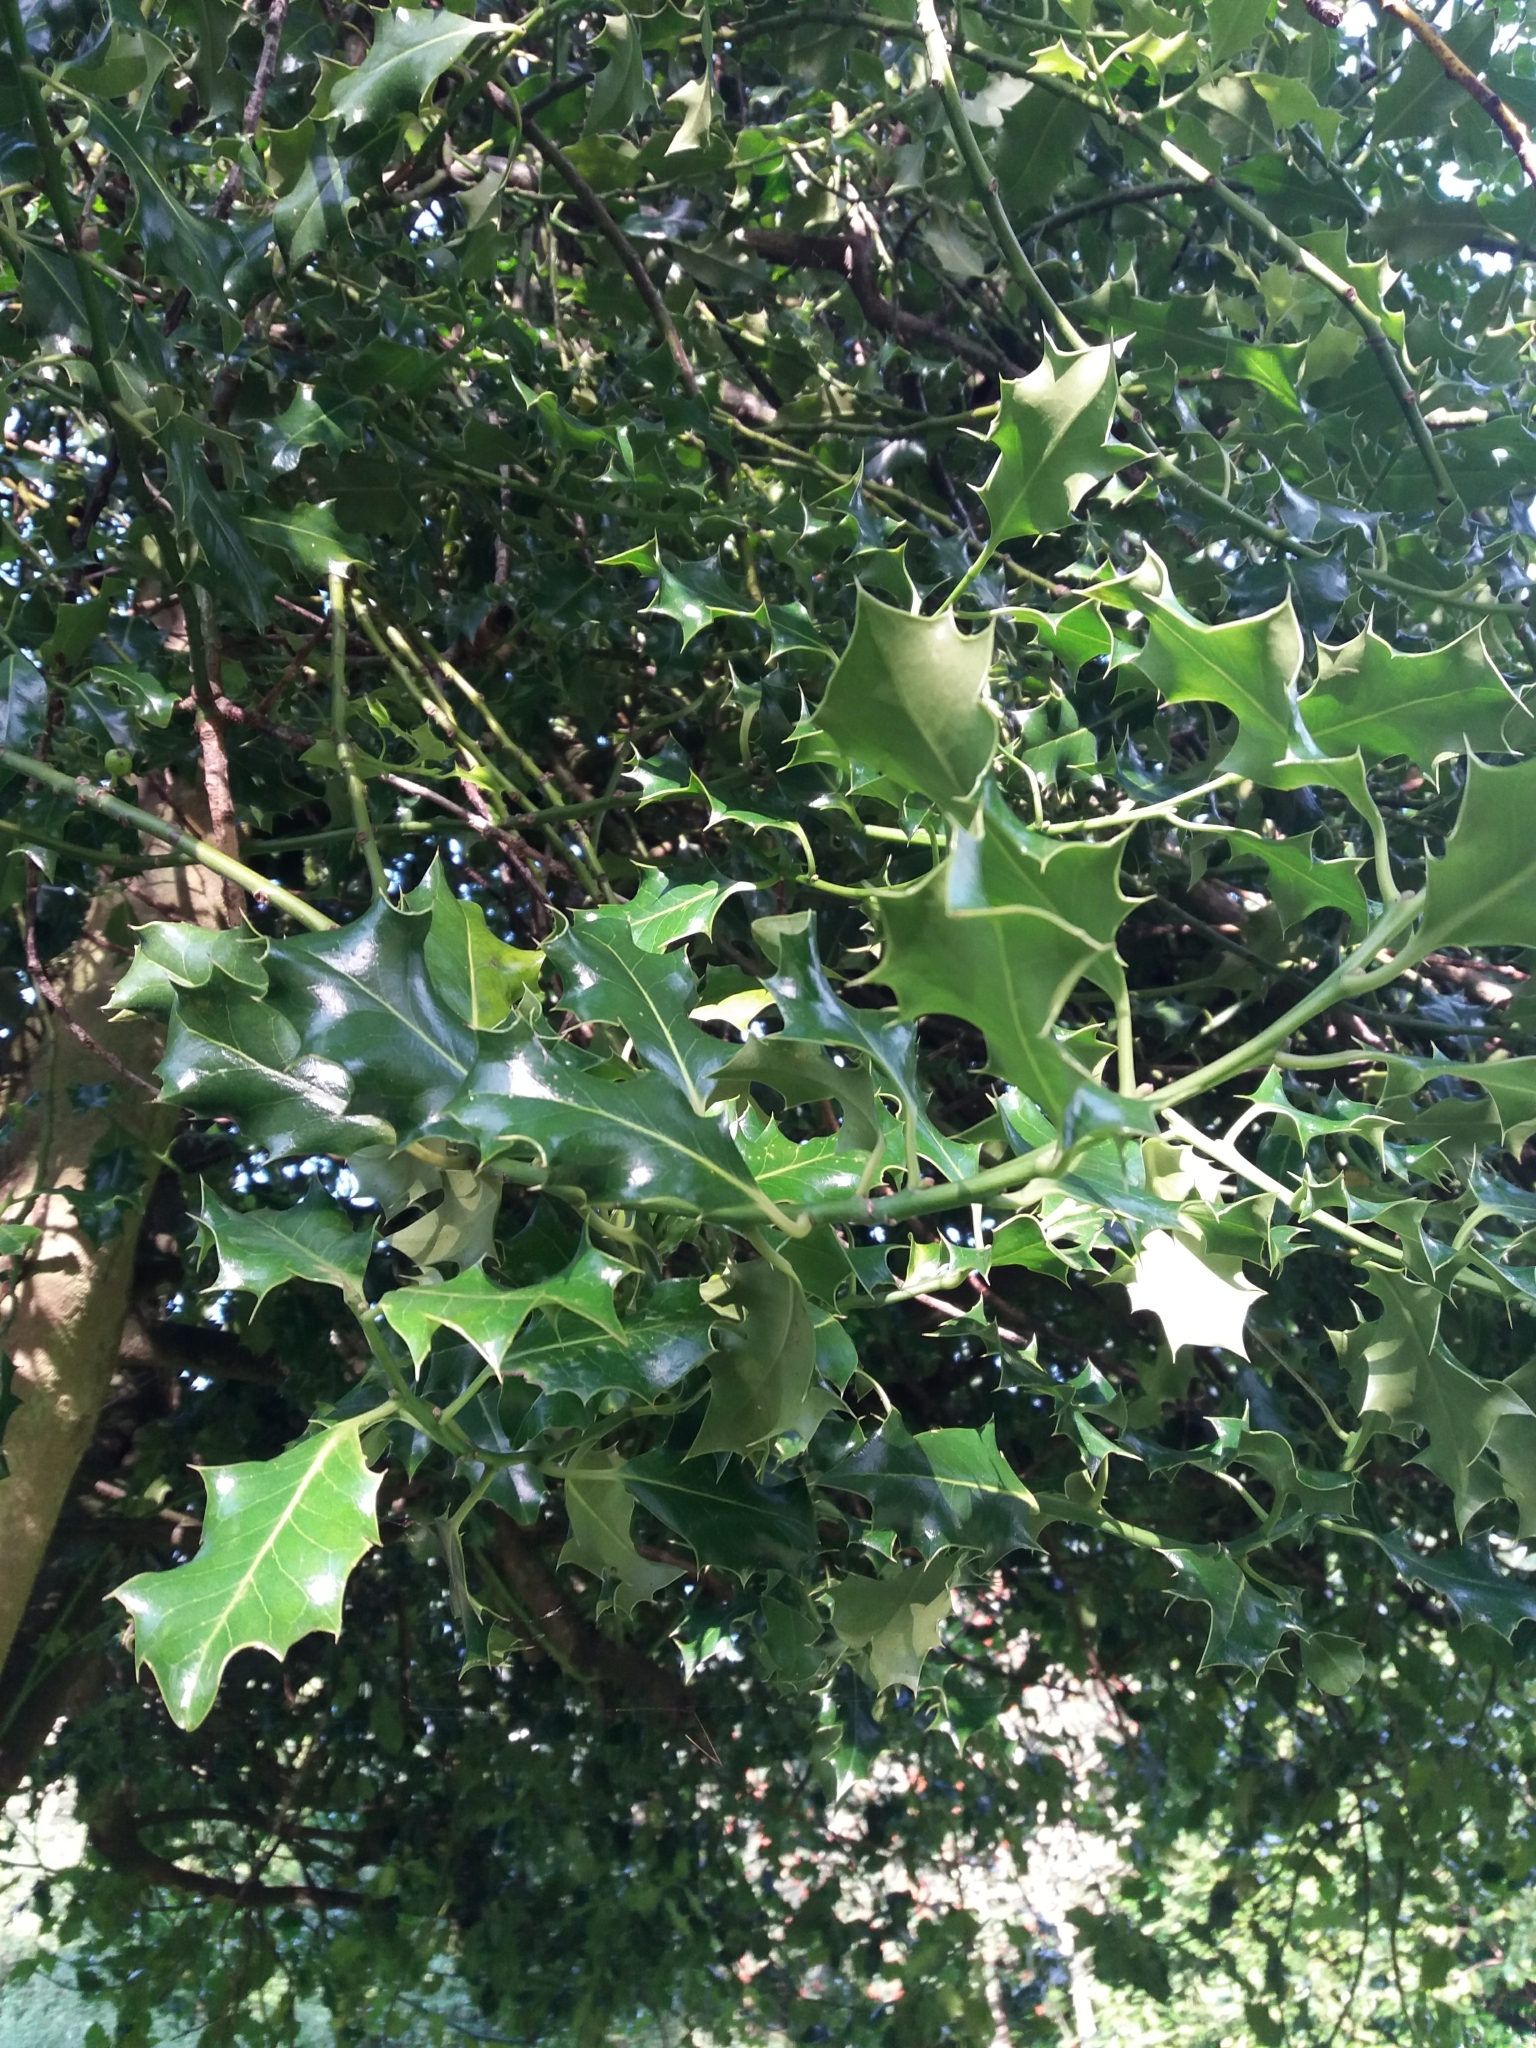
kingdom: Plantae
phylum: Tracheophyta
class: Magnoliopsida
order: Aquifoliales
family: Aquifoliaceae
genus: Ilex
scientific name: Ilex aquifolium
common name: English holly
